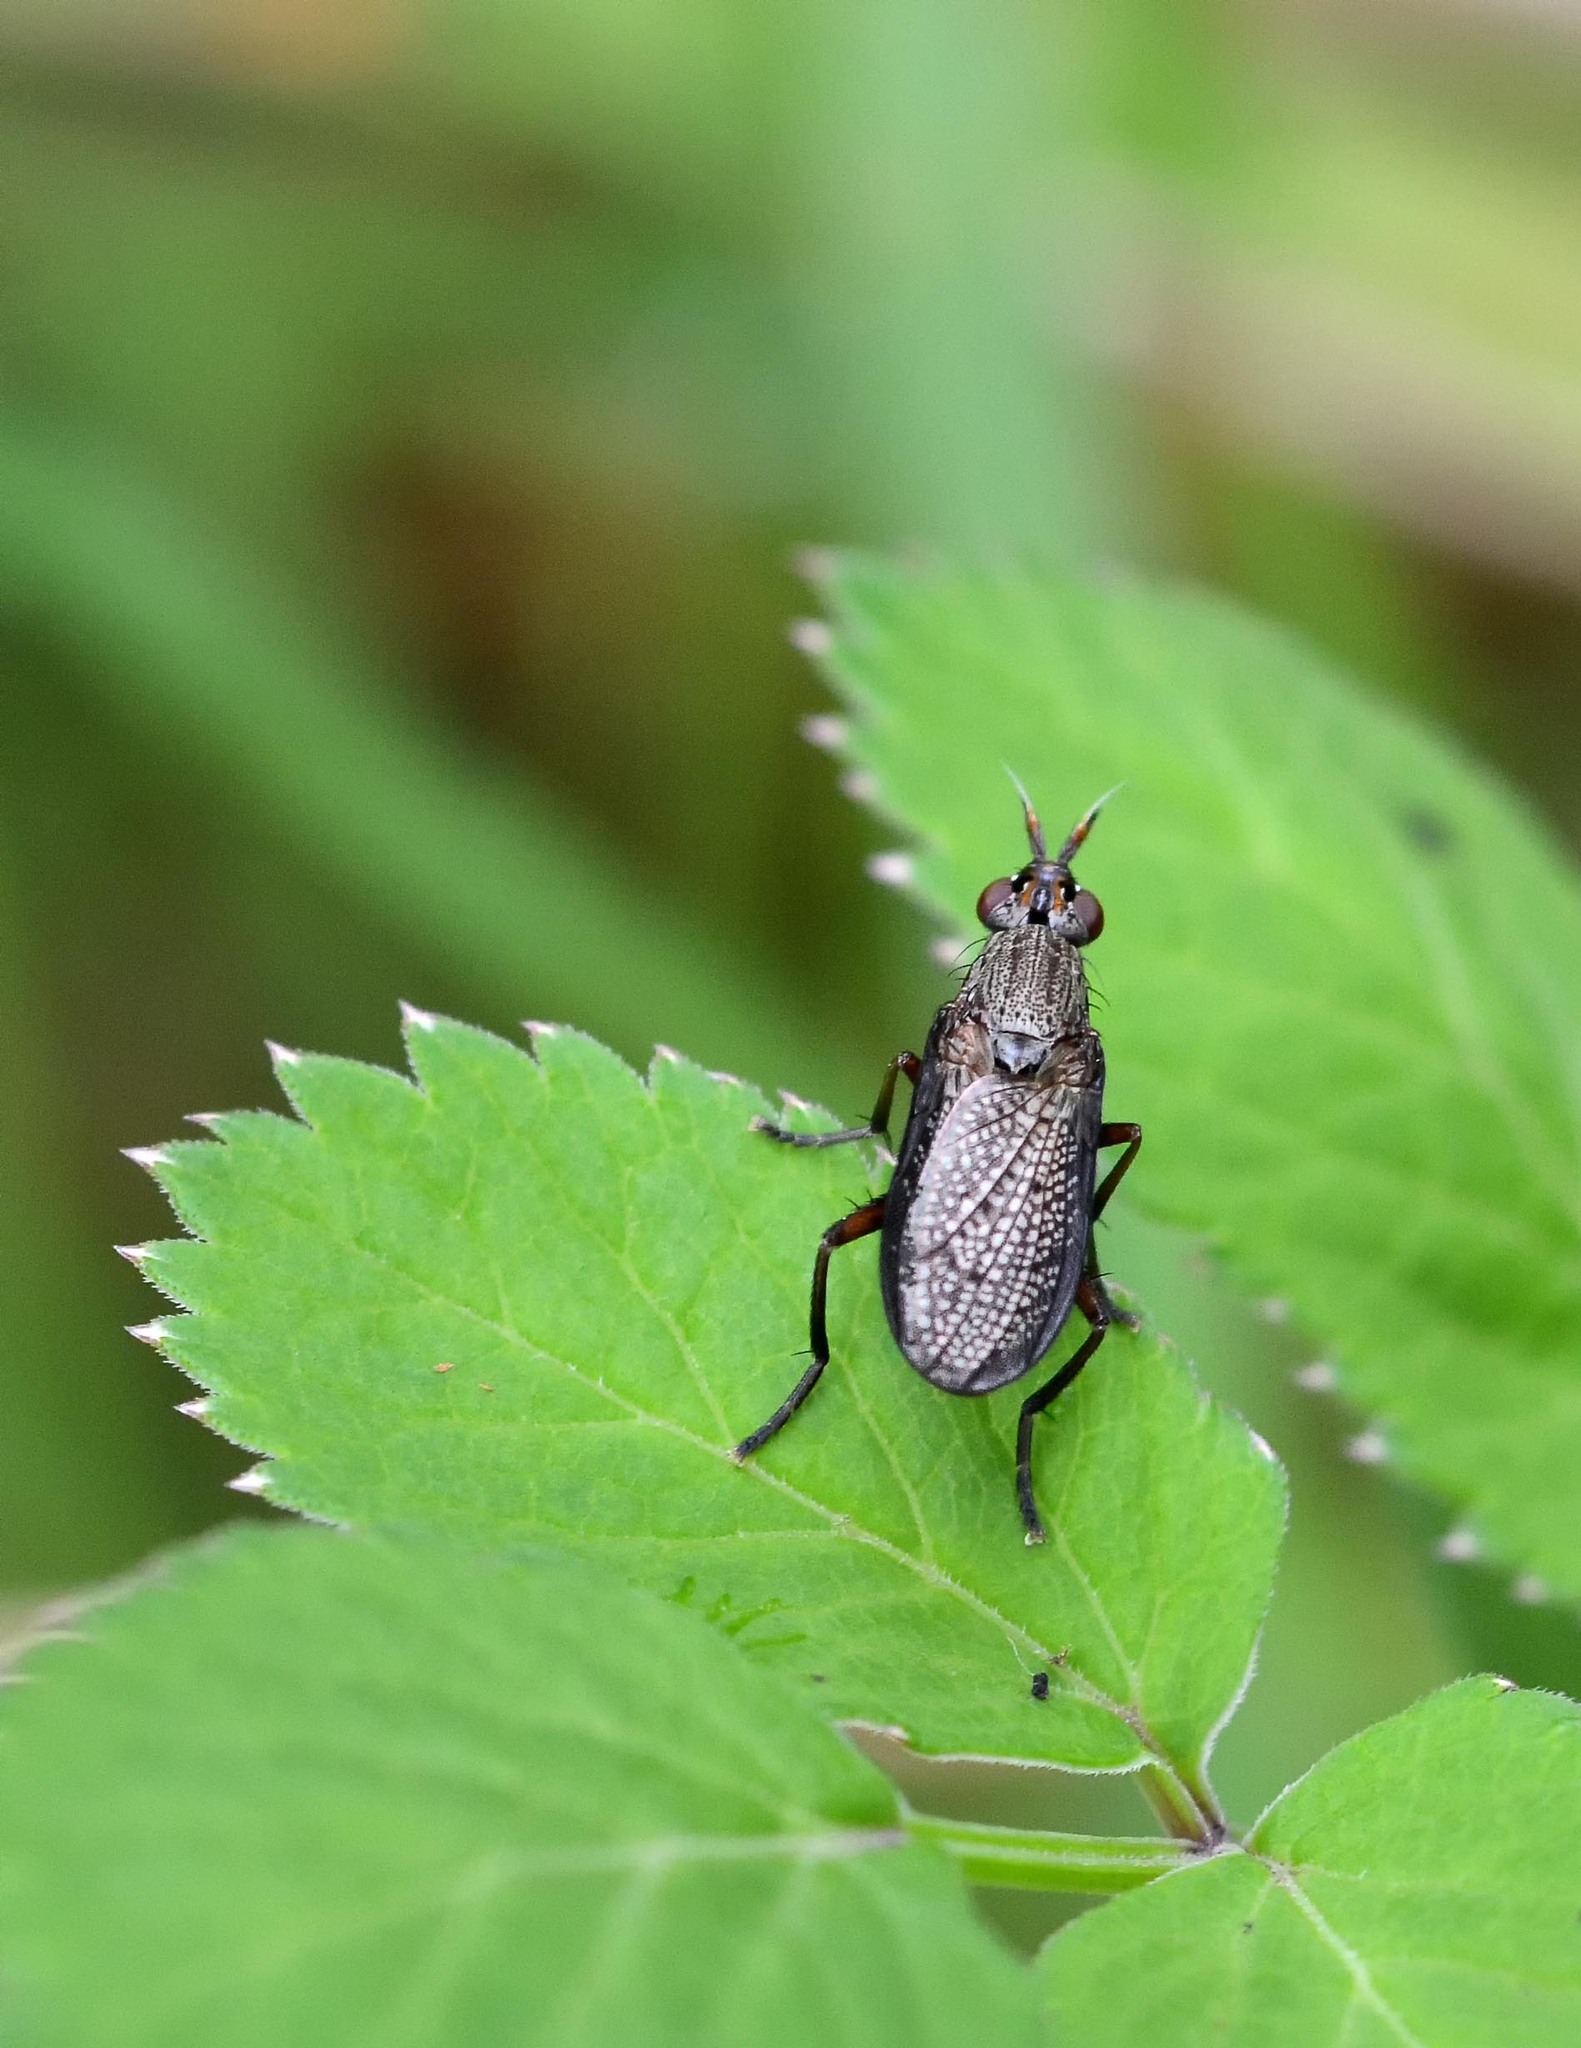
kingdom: Animalia
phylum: Arthropoda
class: Insecta
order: Diptera
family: Sciomyzidae
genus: Coremacera
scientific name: Coremacera marginata
